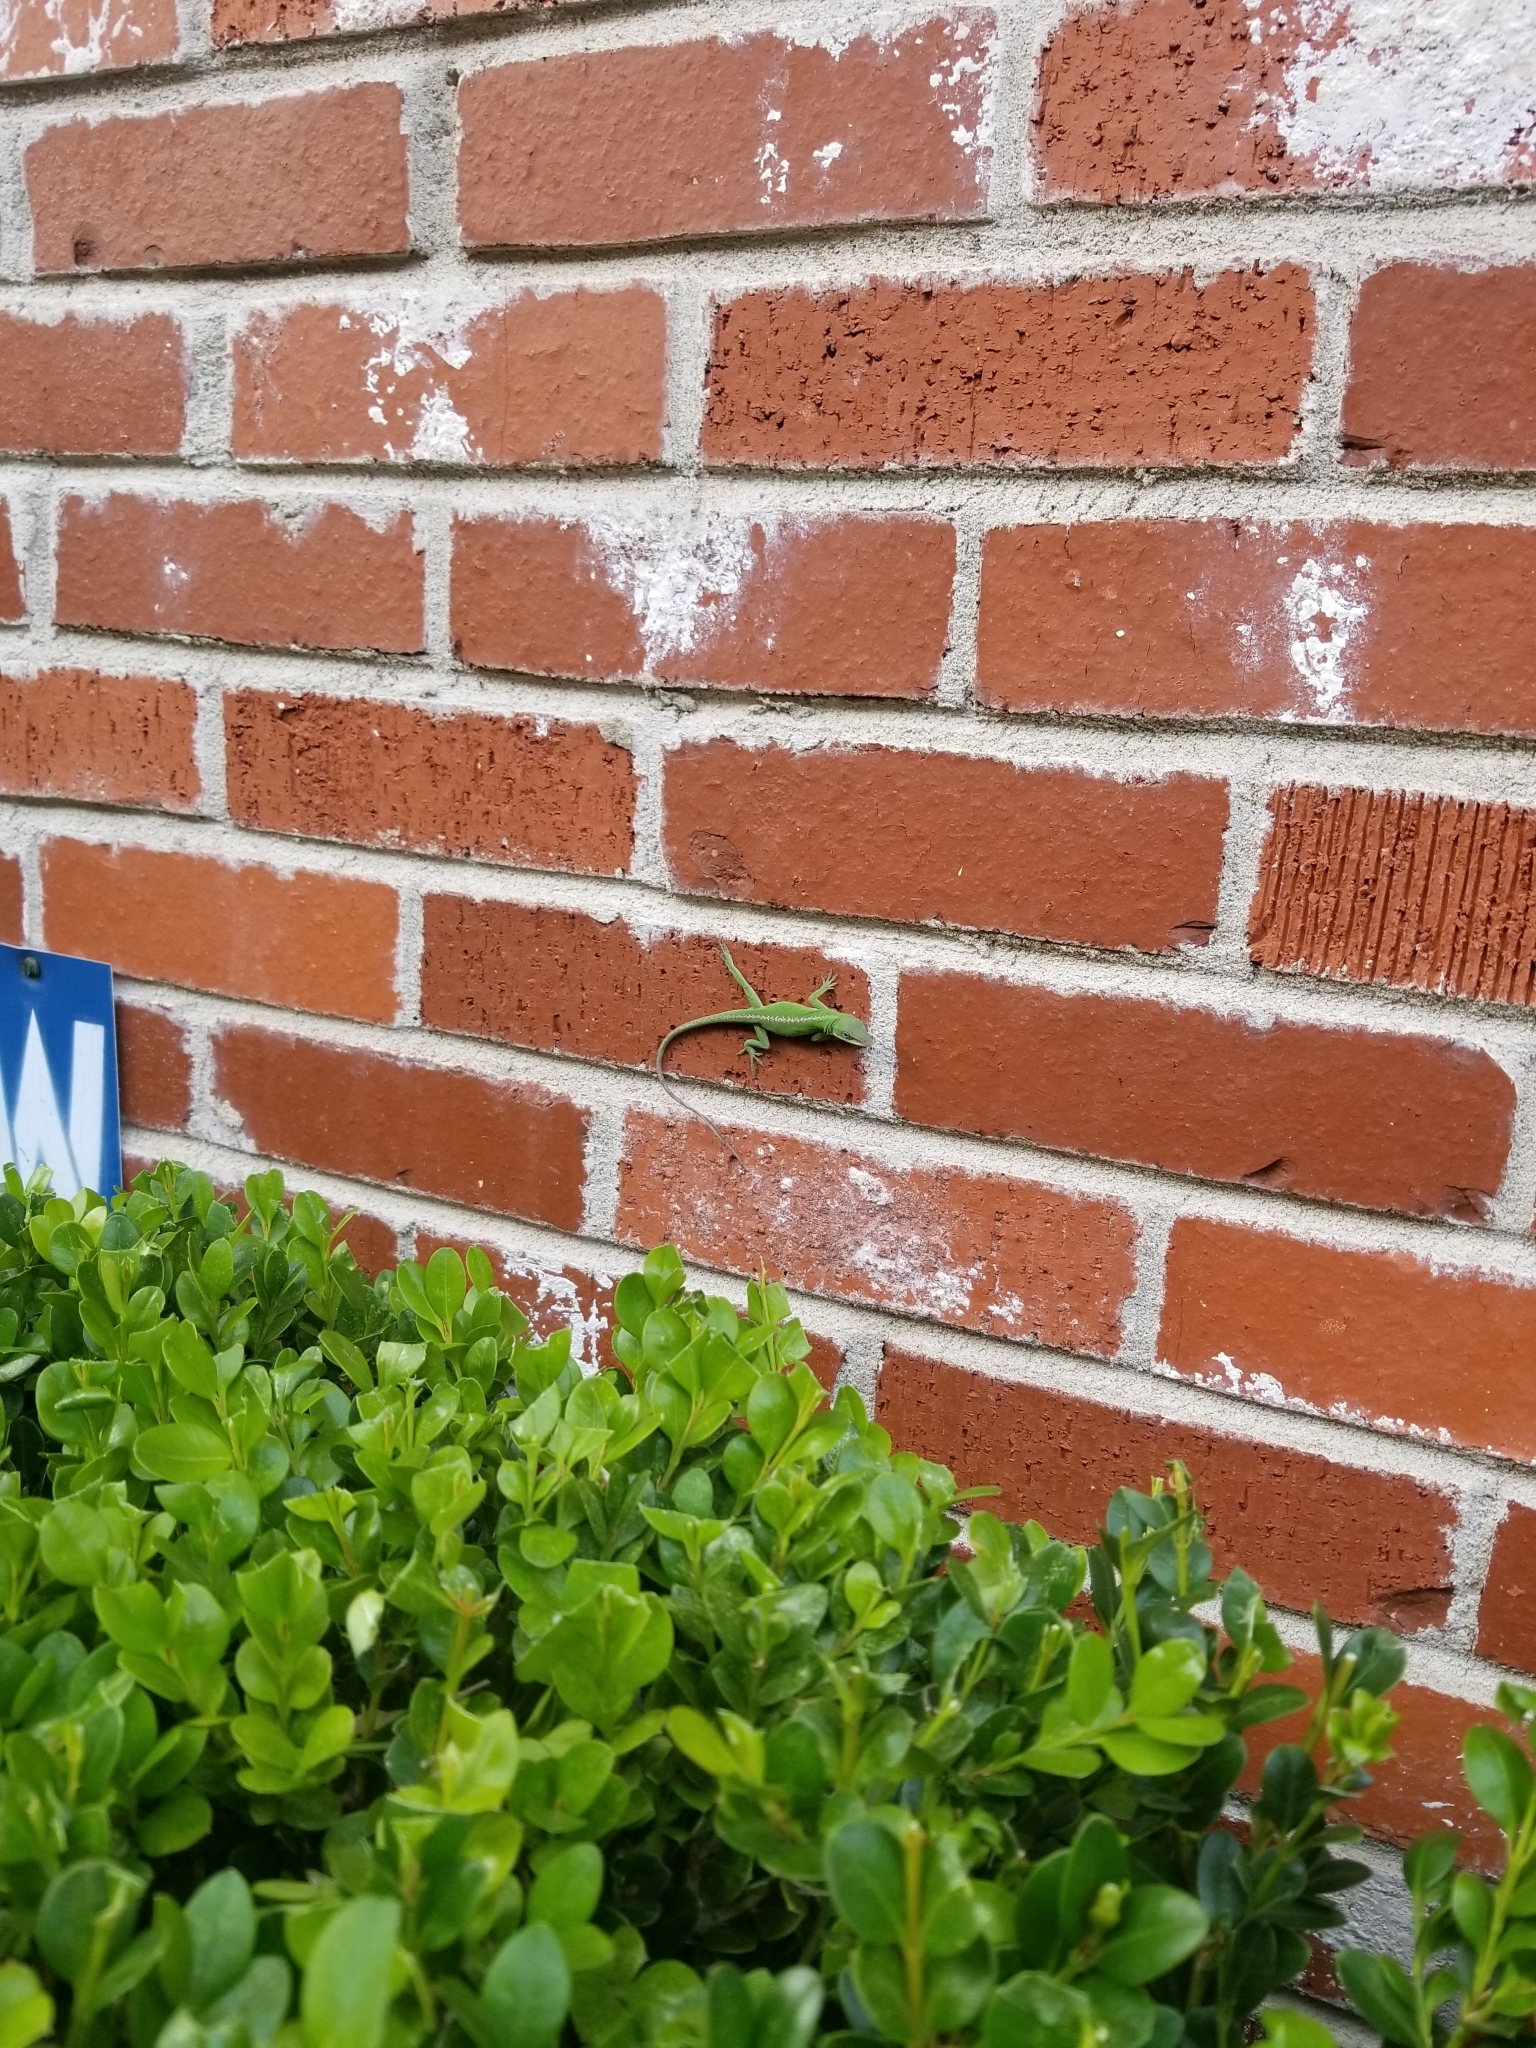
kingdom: Animalia
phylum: Chordata
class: Squamata
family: Dactyloidae
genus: Anolis
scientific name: Anolis carolinensis
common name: Green anole
